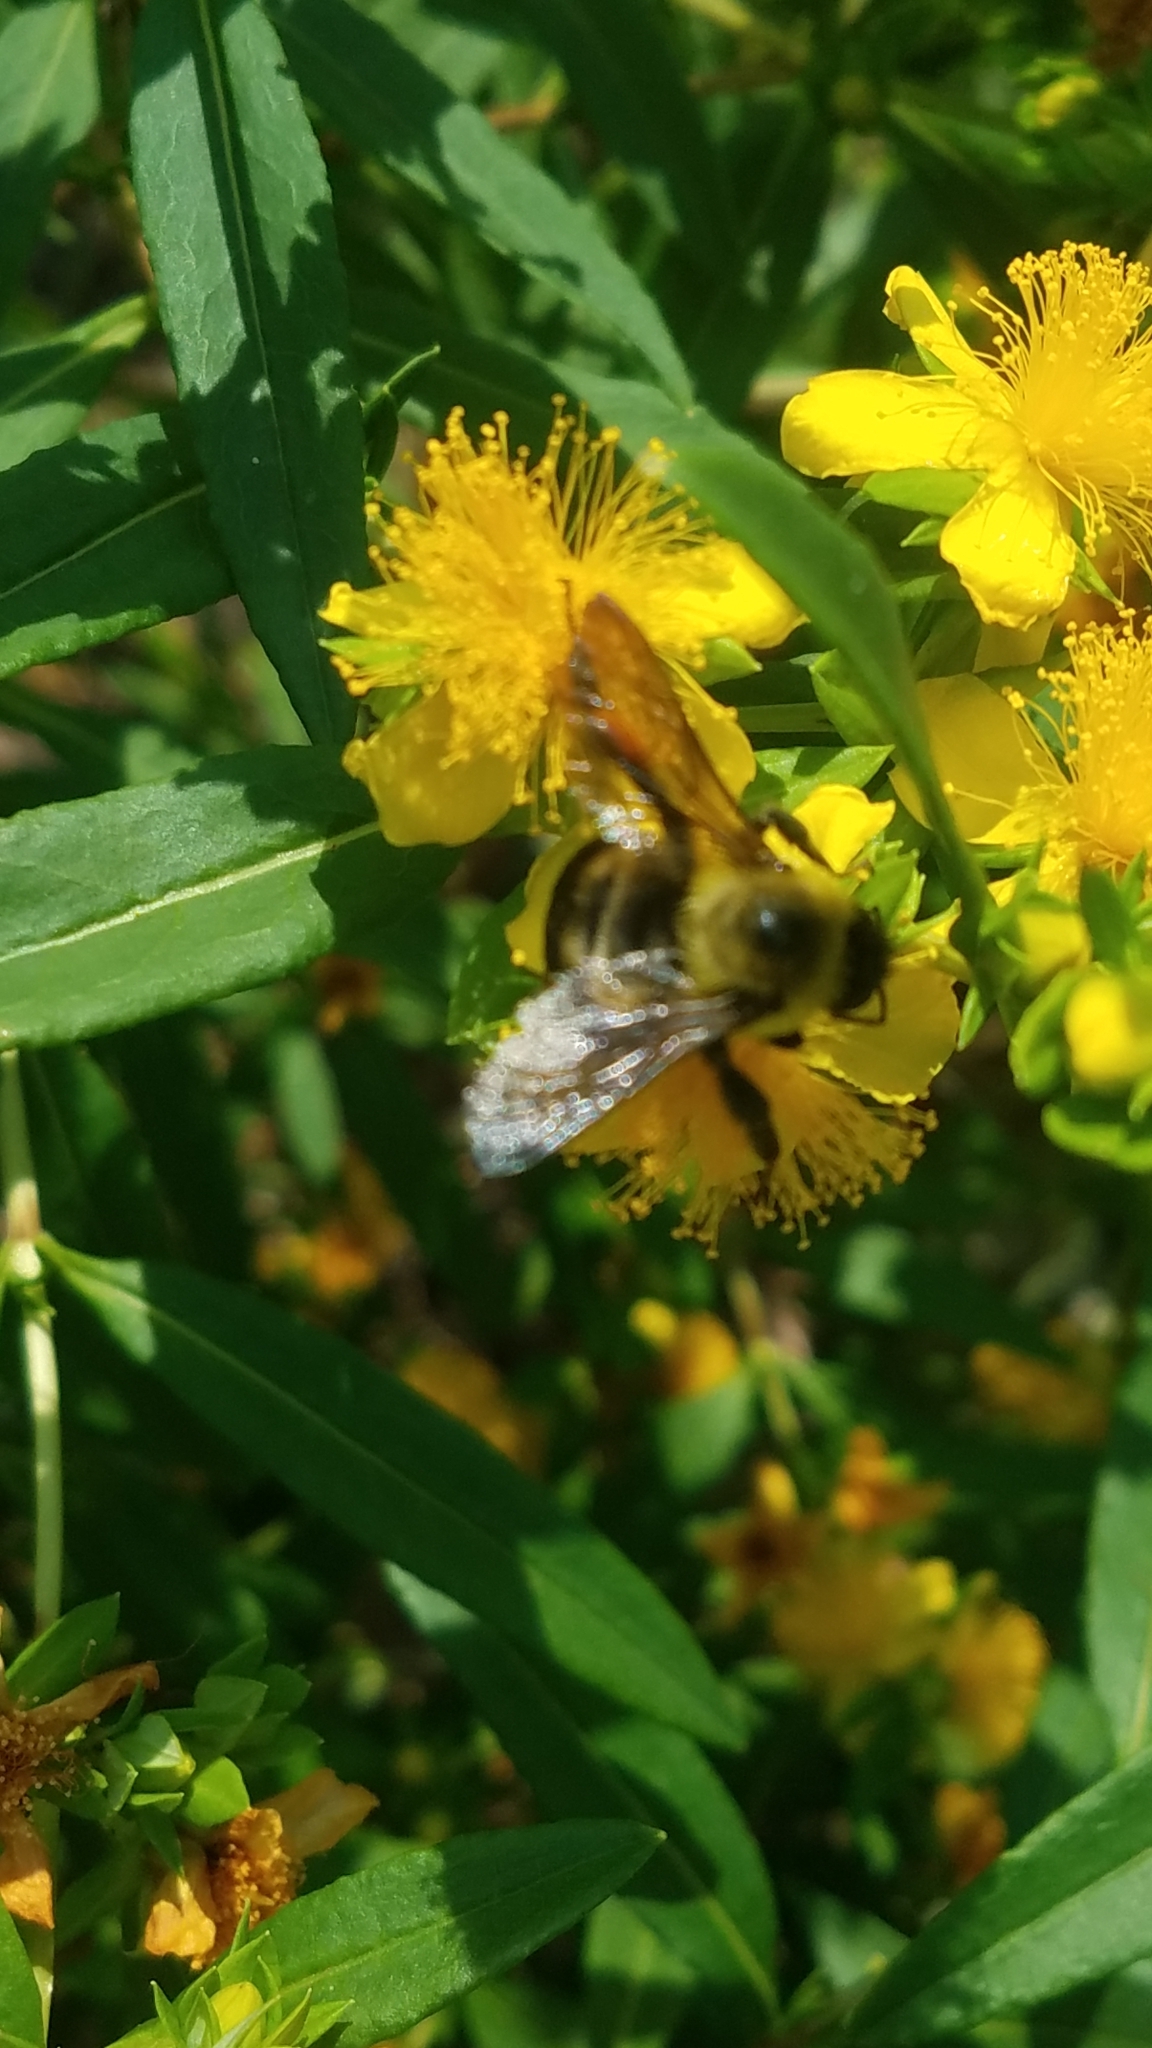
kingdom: Animalia
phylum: Arthropoda
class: Insecta
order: Hymenoptera
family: Apidae
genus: Bombus
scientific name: Bombus griseocollis
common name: Brown-belted bumble bee
